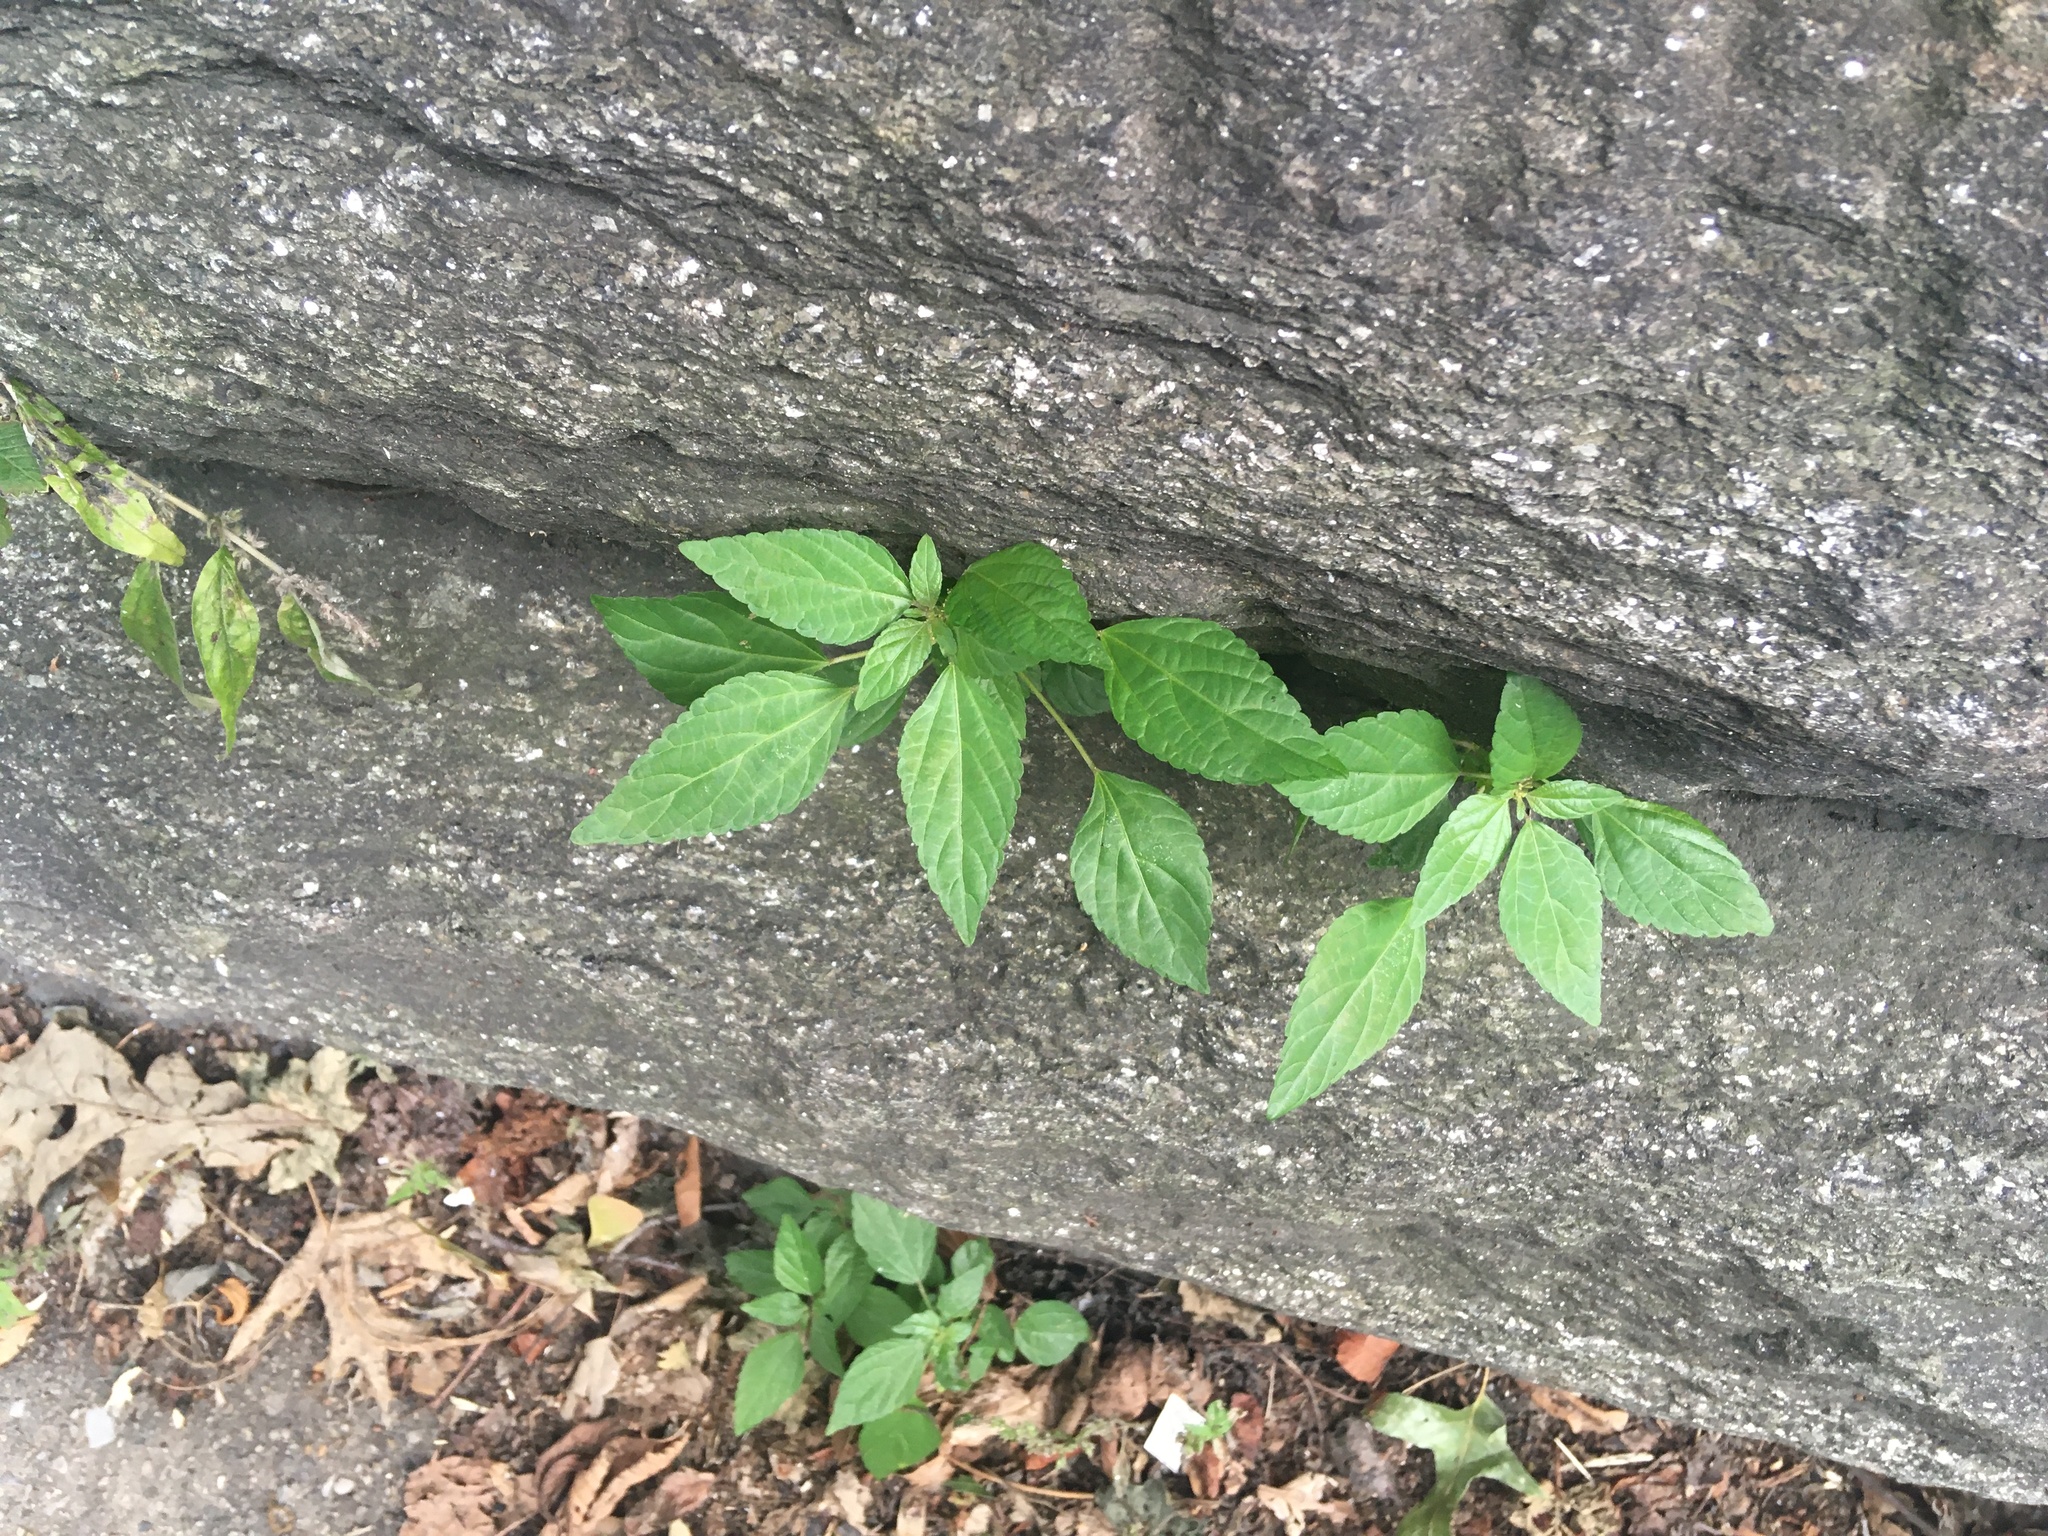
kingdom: Plantae
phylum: Tracheophyta
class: Magnoliopsida
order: Malpighiales
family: Euphorbiaceae
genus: Acalypha
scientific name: Acalypha rhomboidea
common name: Rhombic copperleaf
